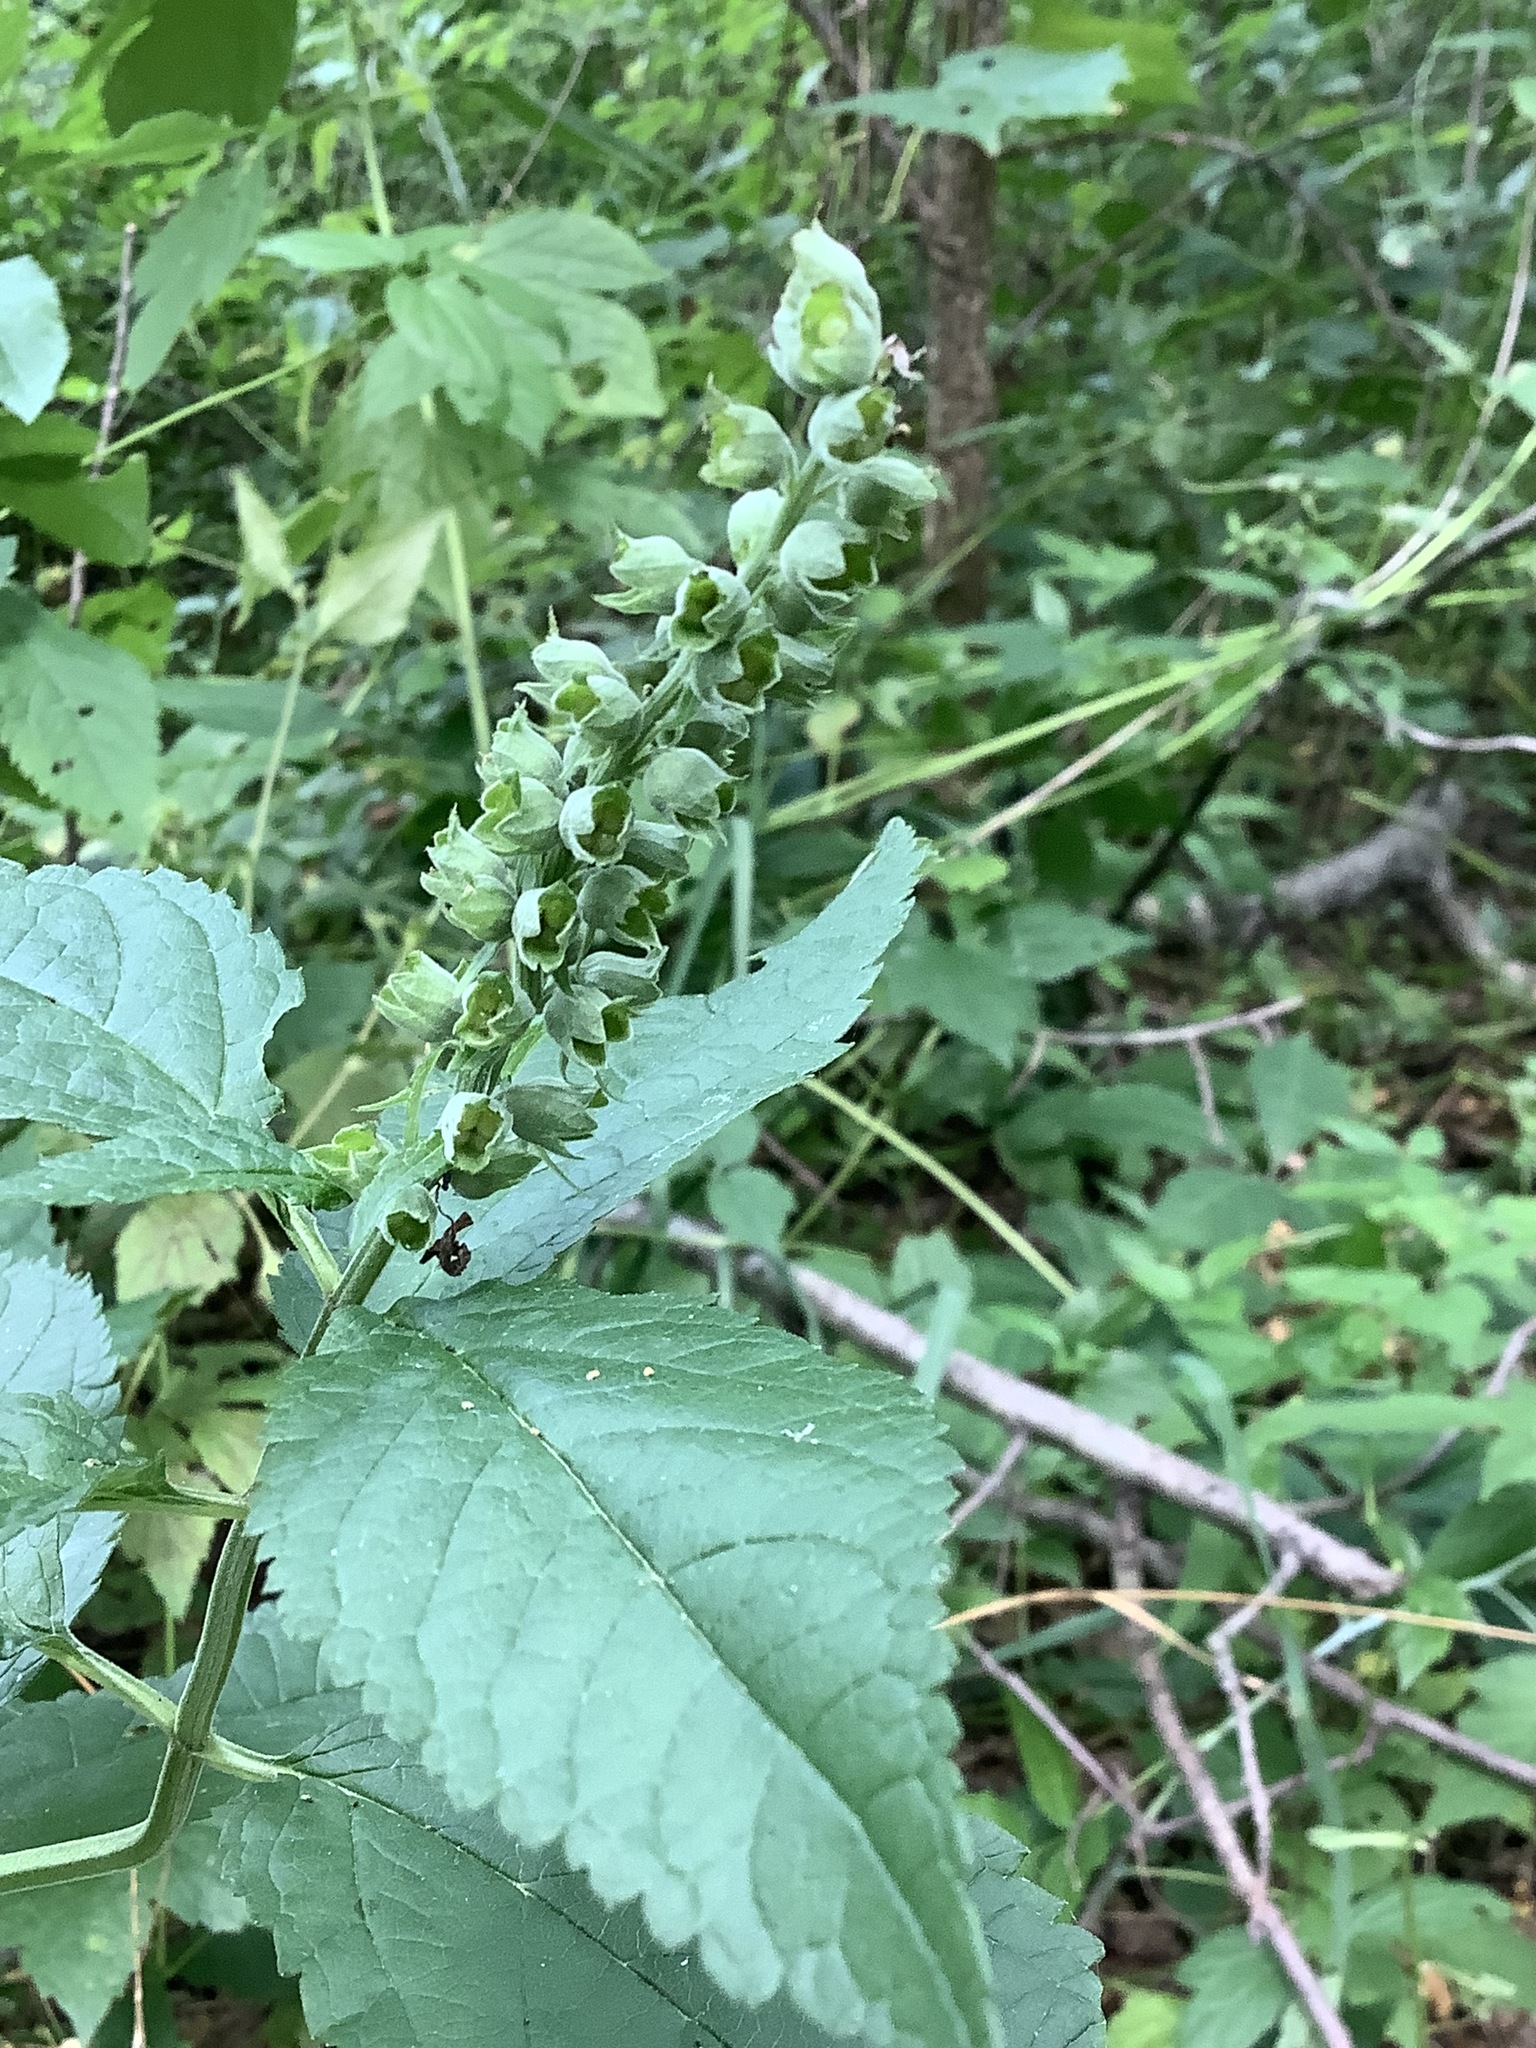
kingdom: Plantae
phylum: Tracheophyta
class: Magnoliopsida
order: Lamiales
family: Lamiaceae
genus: Teucrium
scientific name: Teucrium canadense
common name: American germander
